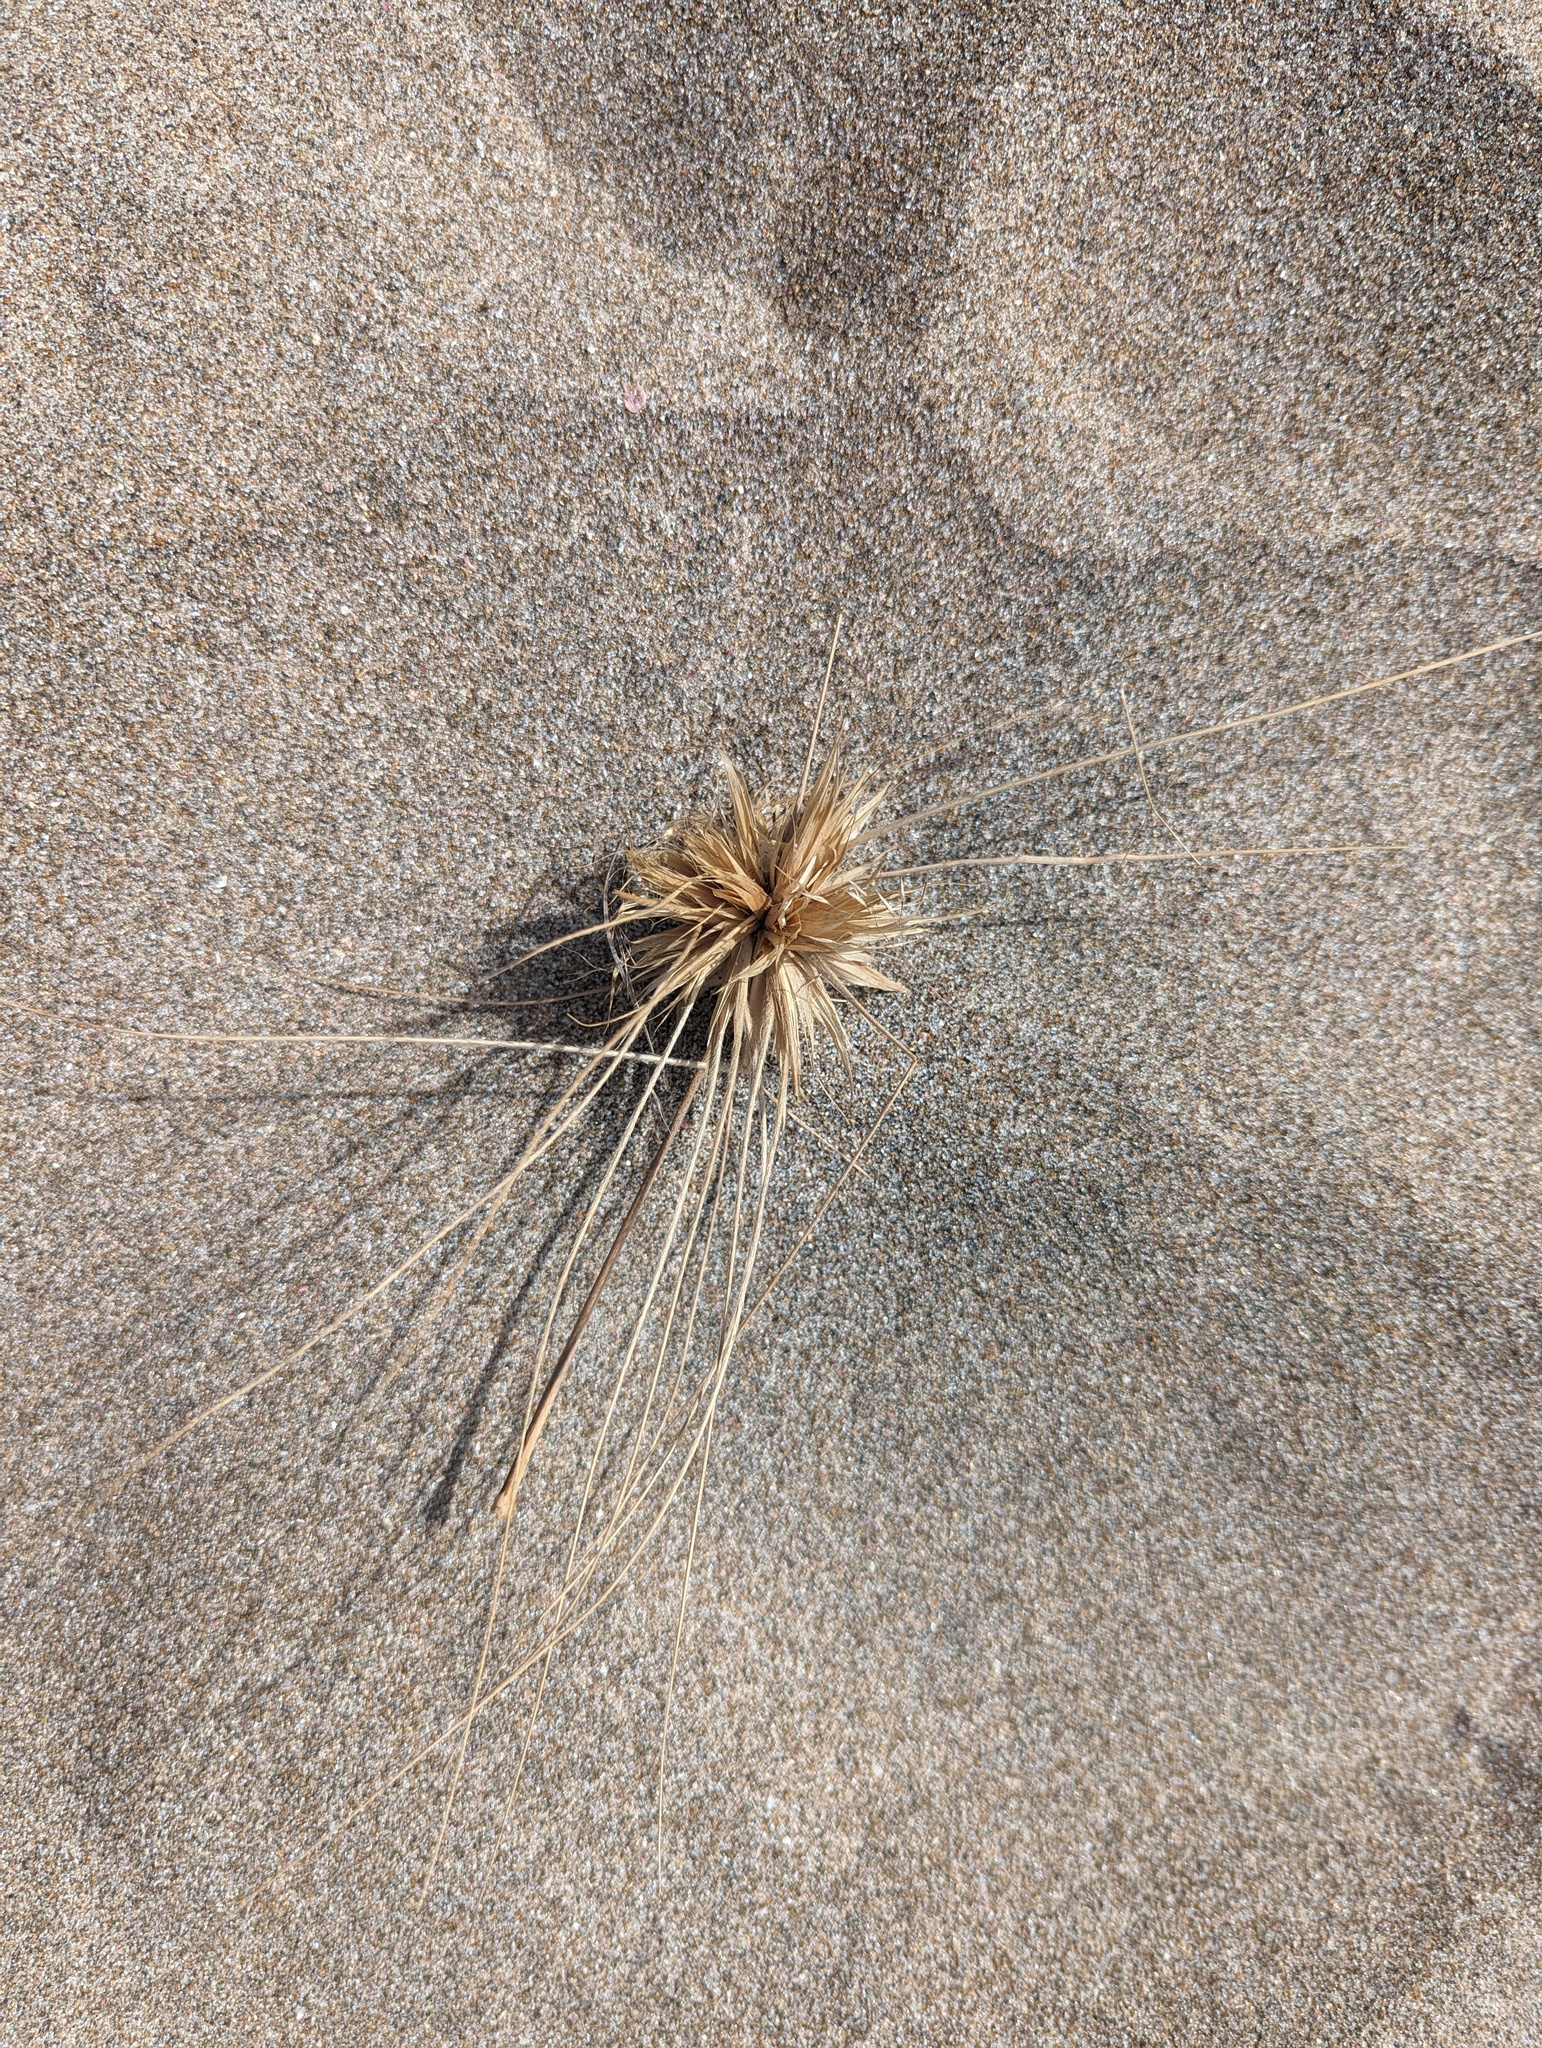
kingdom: Plantae
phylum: Tracheophyta
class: Liliopsida
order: Poales
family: Poaceae
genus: Spinifex
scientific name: Spinifex sericeus
